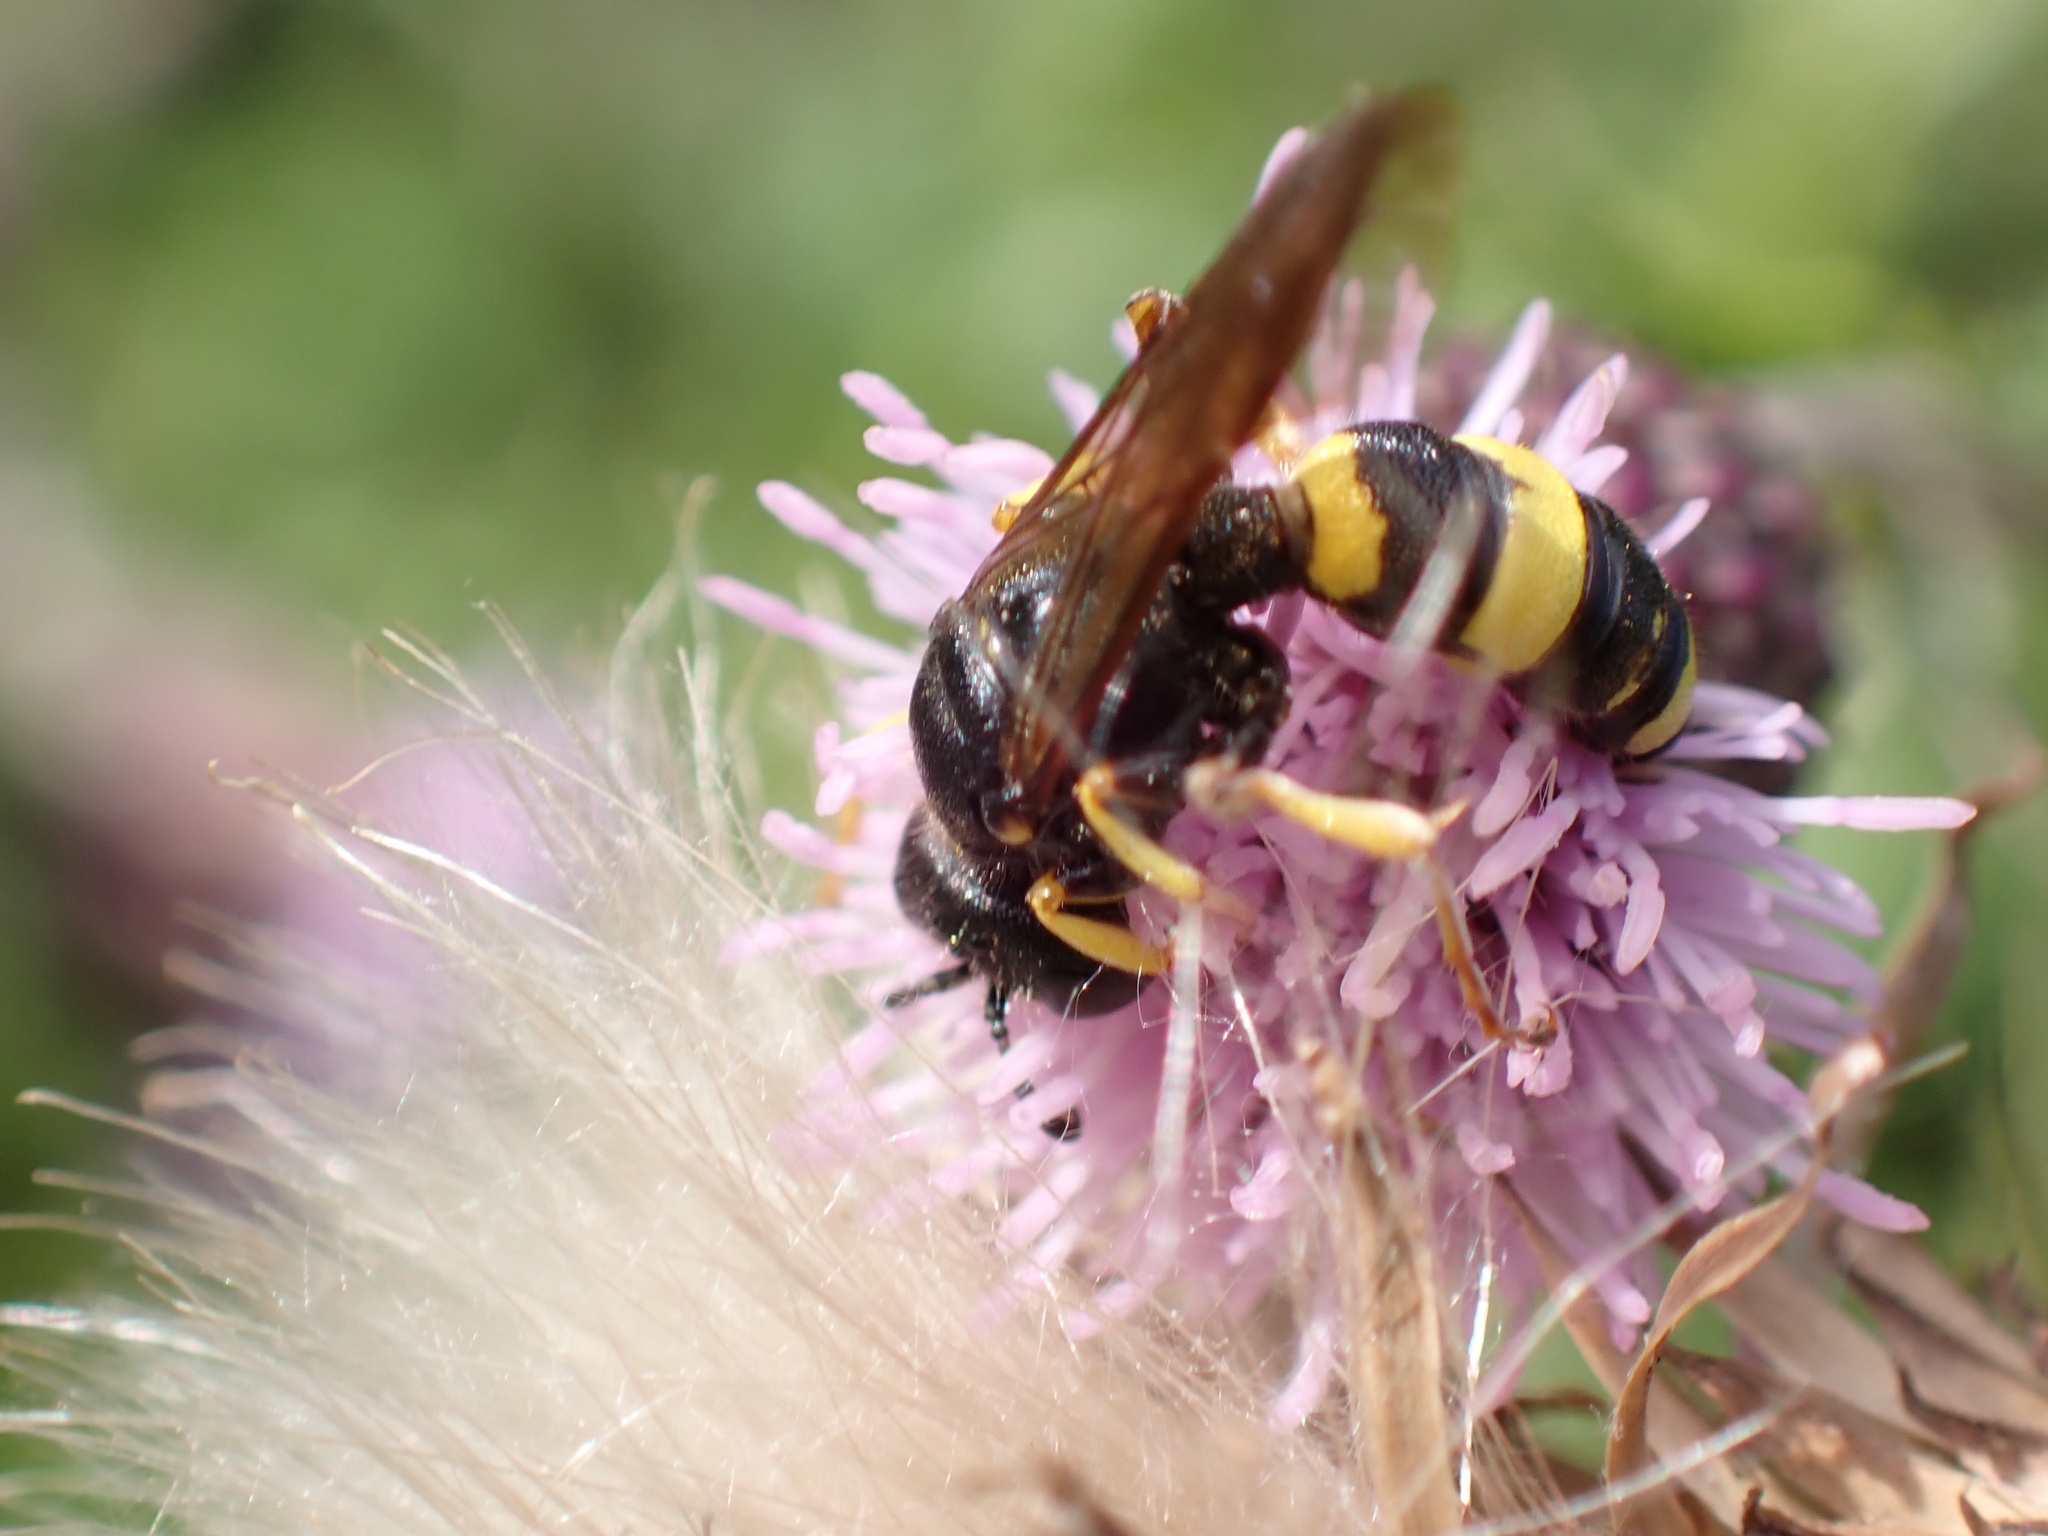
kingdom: Animalia
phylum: Arthropoda
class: Insecta
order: Hymenoptera
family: Crabronidae
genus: Cerceris
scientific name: Cerceris rybyensis
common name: Ornate tailed digger wasp
